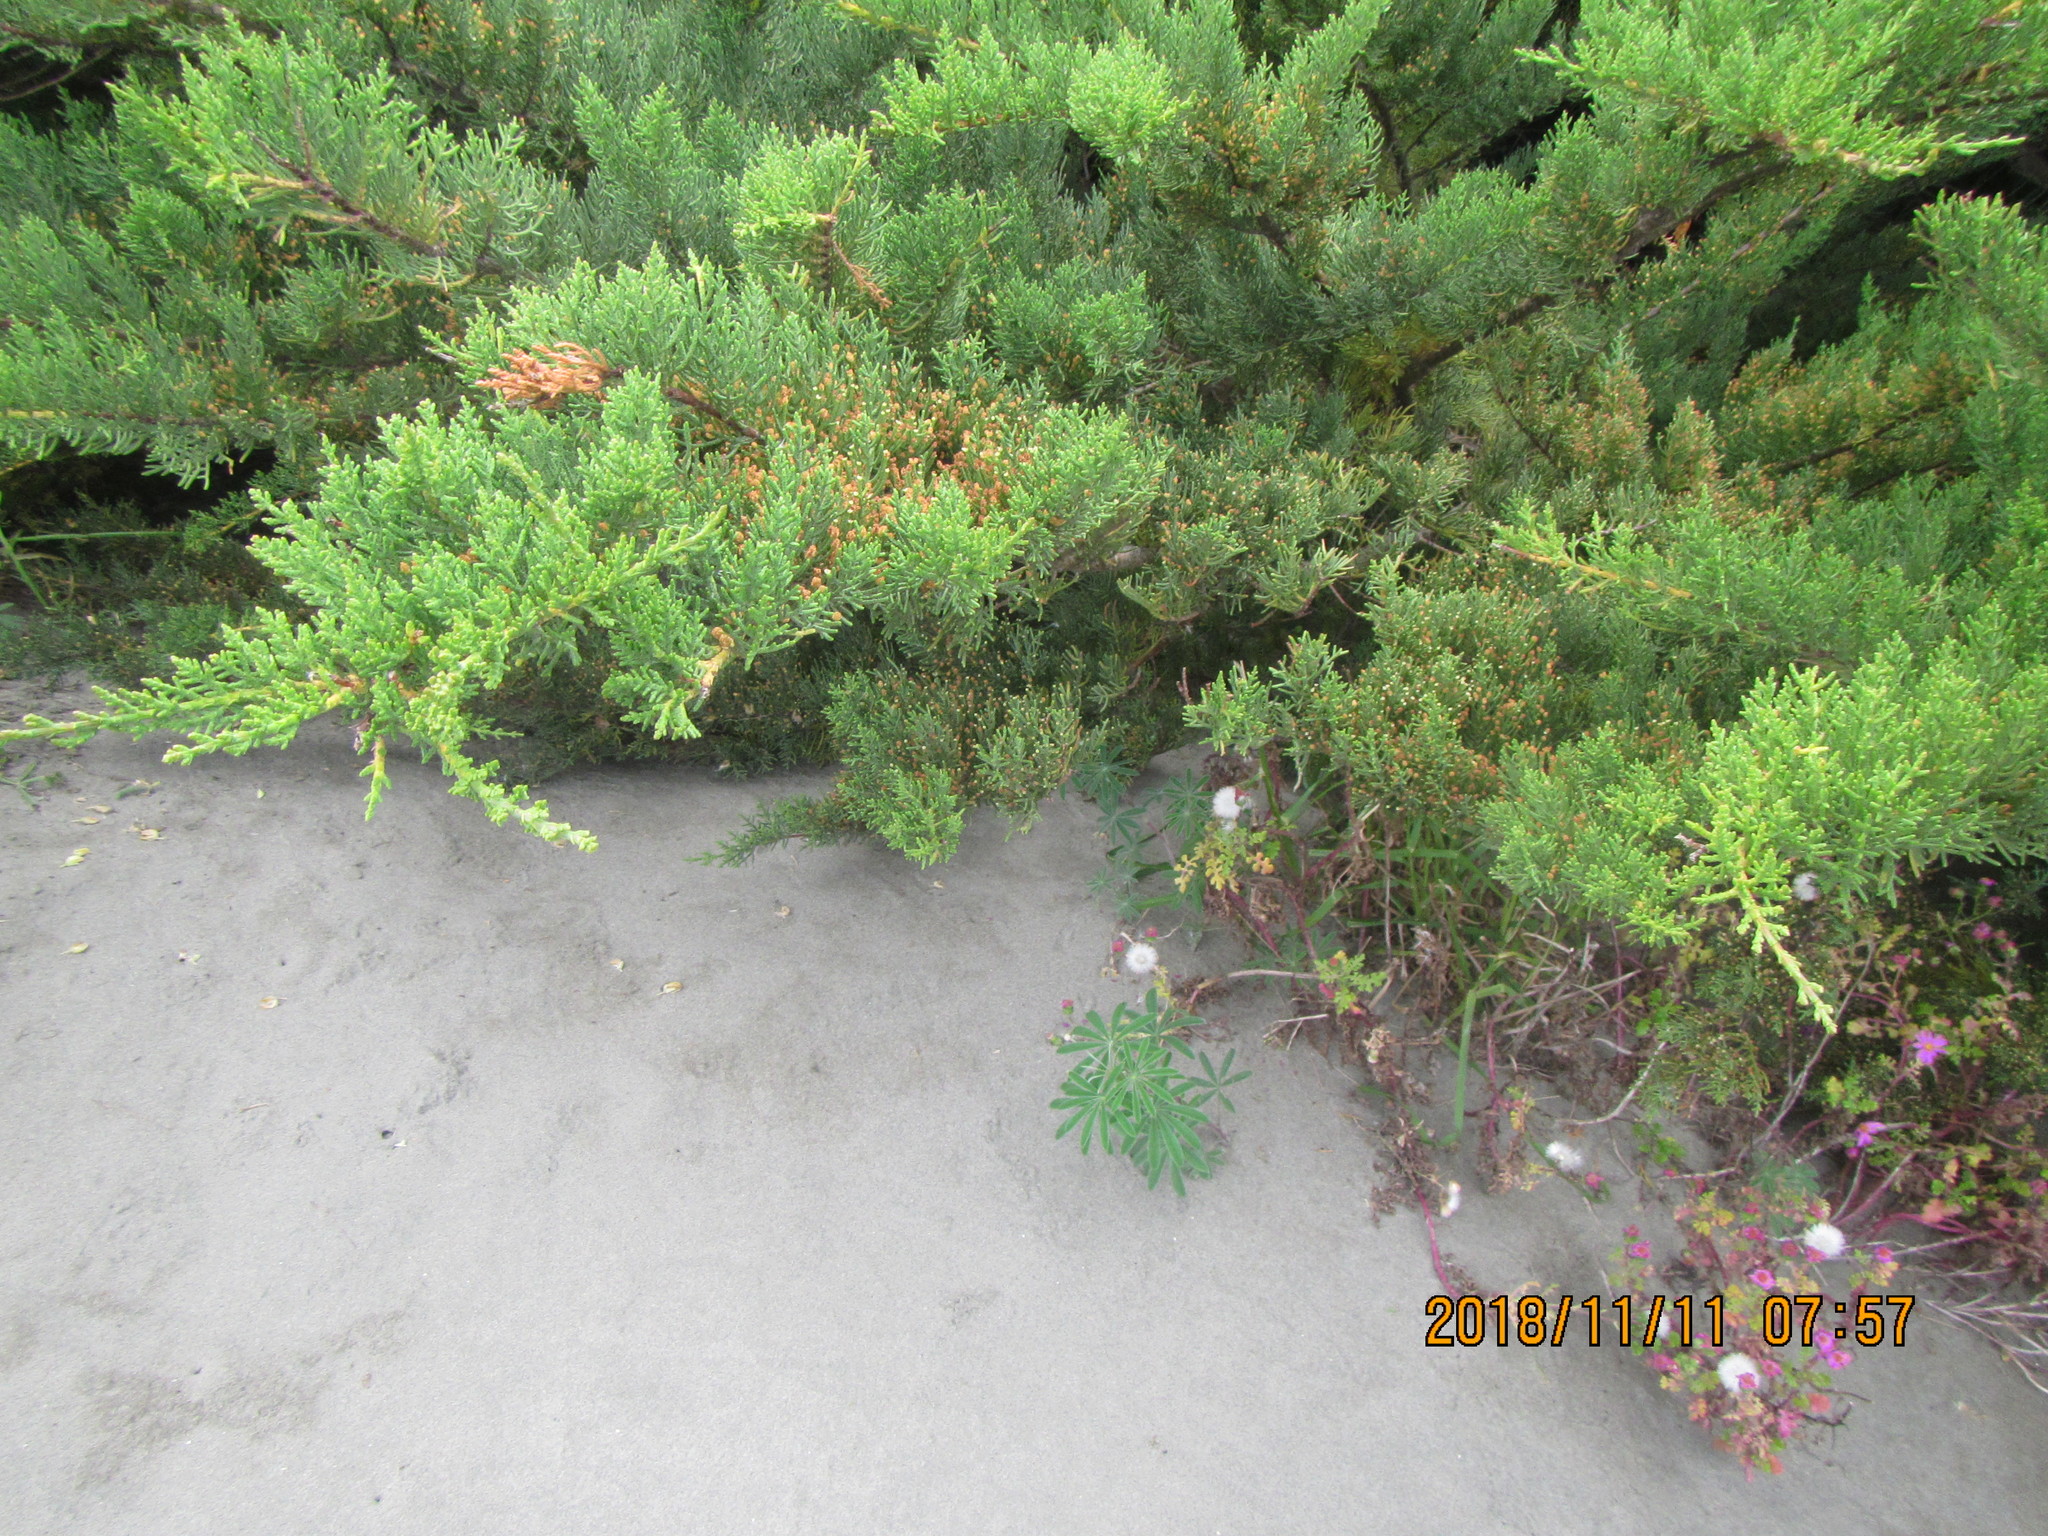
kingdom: Plantae
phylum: Tracheophyta
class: Pinopsida
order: Pinales
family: Cupressaceae
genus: Cupressus
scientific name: Cupressus macrocarpa
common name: Monterey cypress
